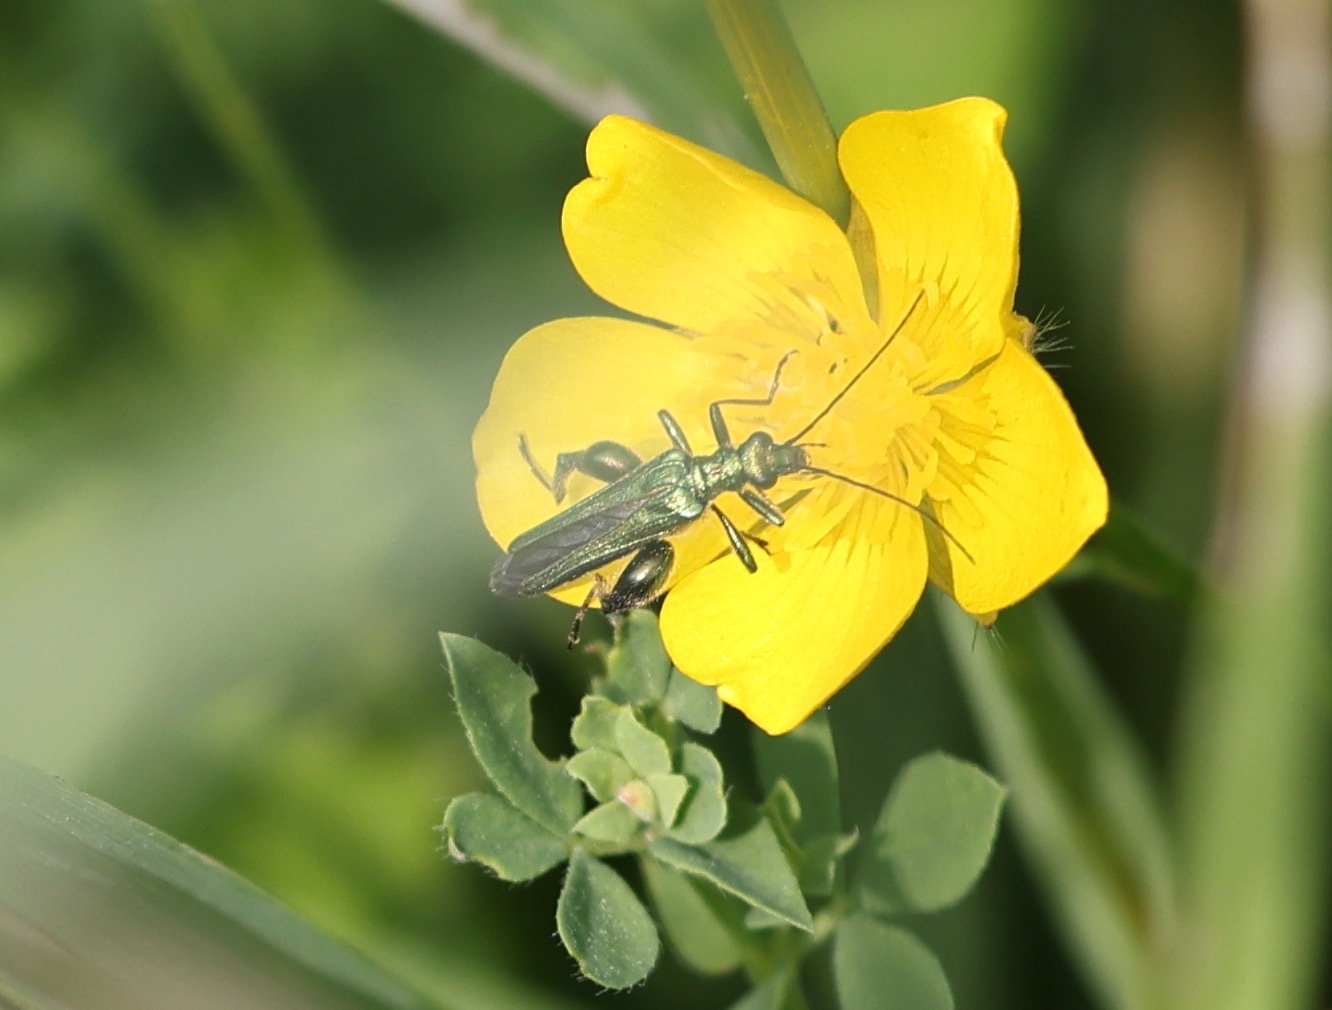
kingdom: Animalia
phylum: Arthropoda
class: Insecta
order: Coleoptera
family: Oedemeridae
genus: Oedemera
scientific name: Oedemera nobilis
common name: Swollen-thighed beetle
